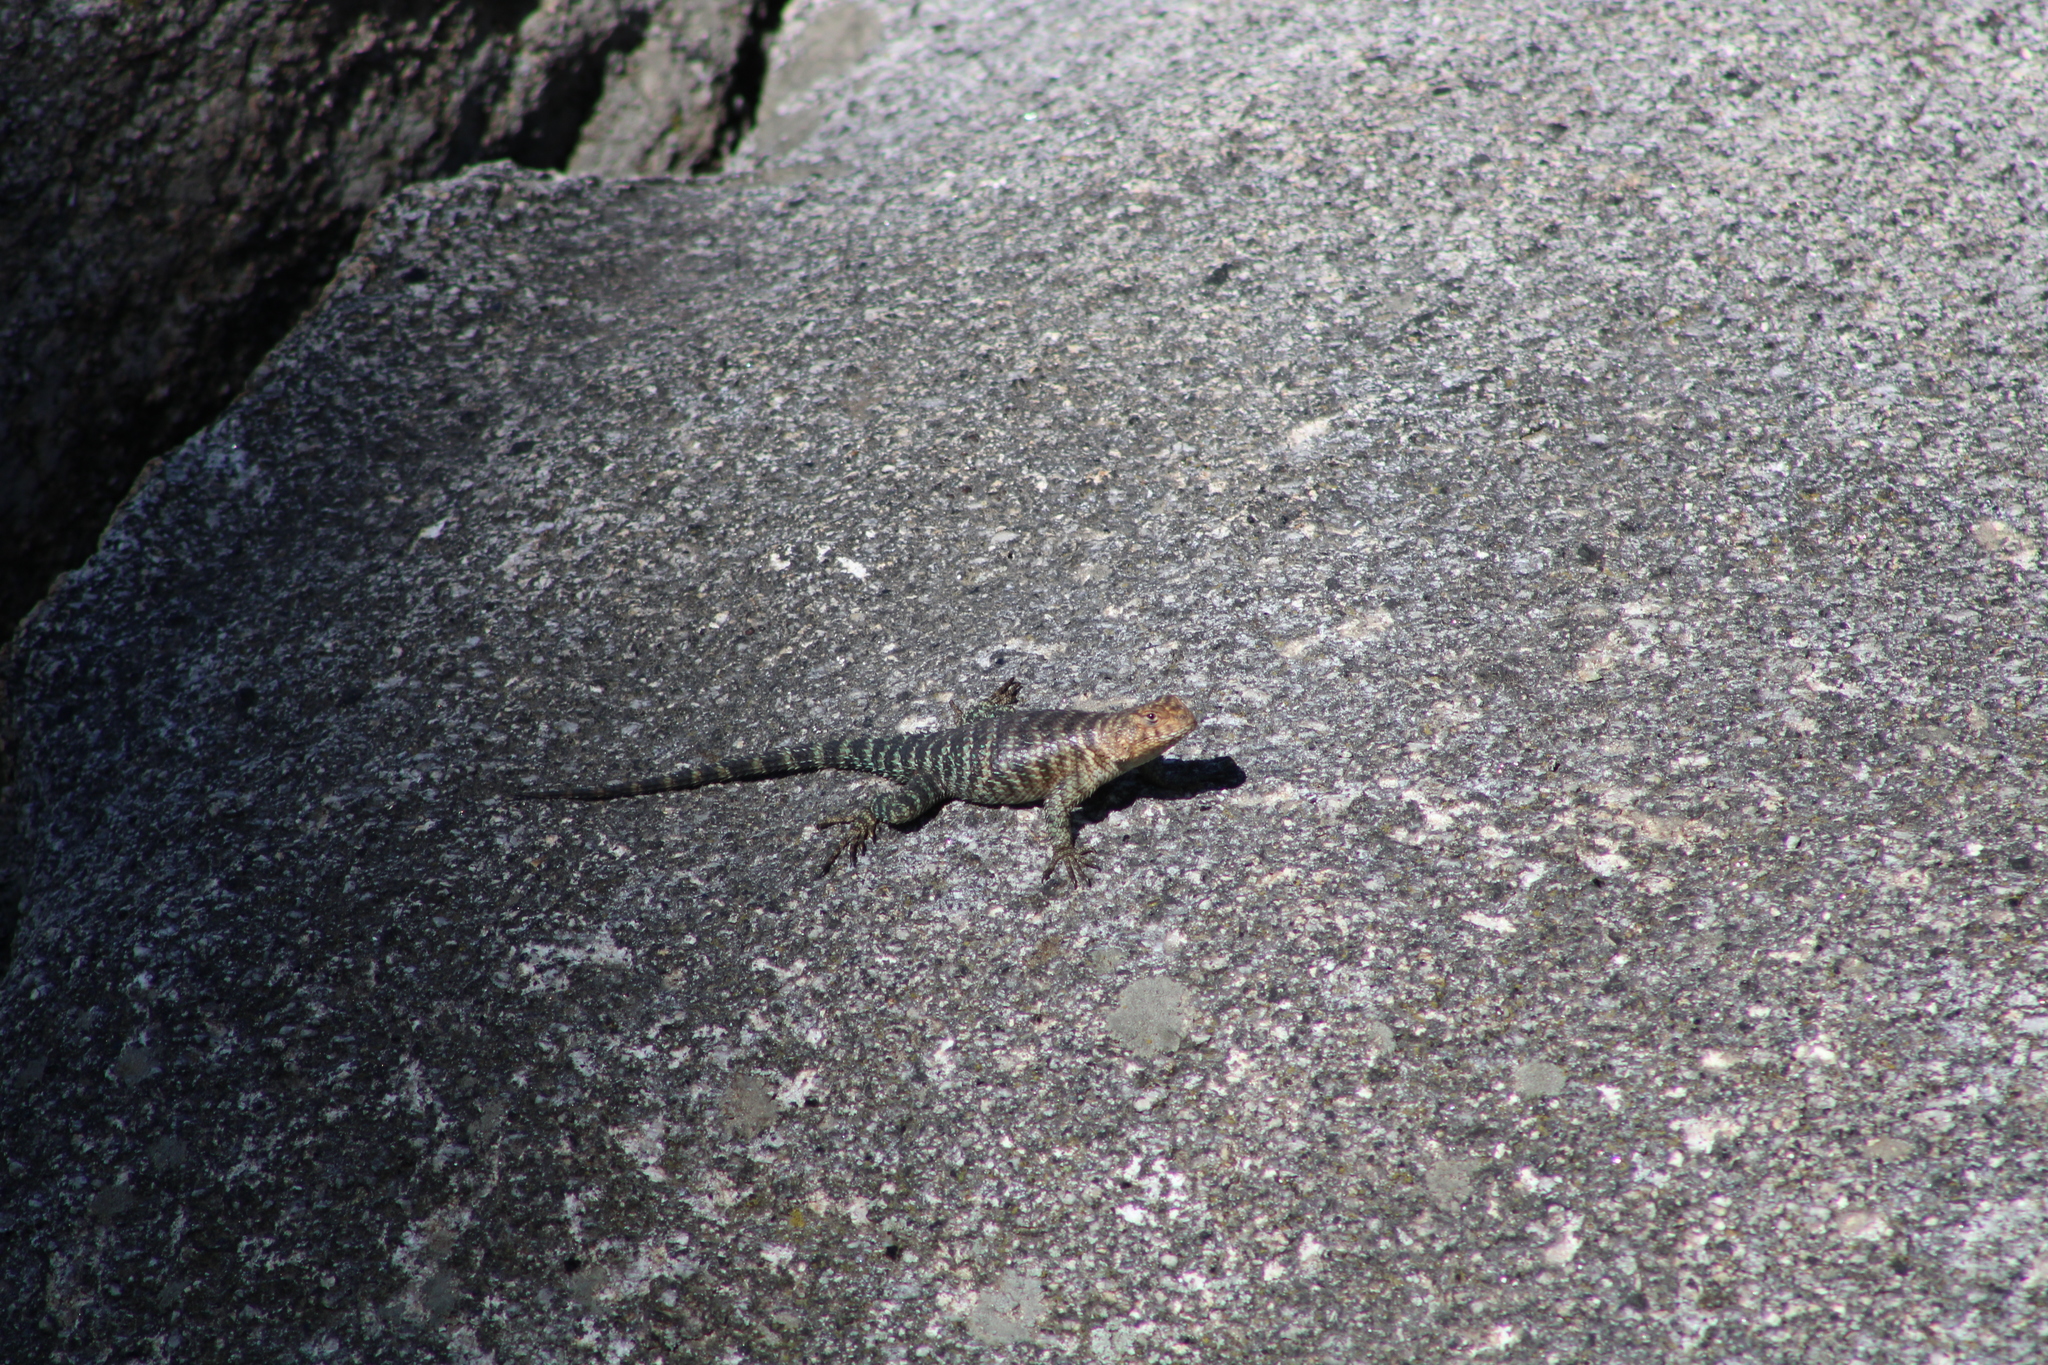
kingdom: Animalia
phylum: Chordata
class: Squamata
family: Phrynosomatidae
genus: Sceloporus
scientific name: Sceloporus orcutti
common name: Granite spiny lizard
